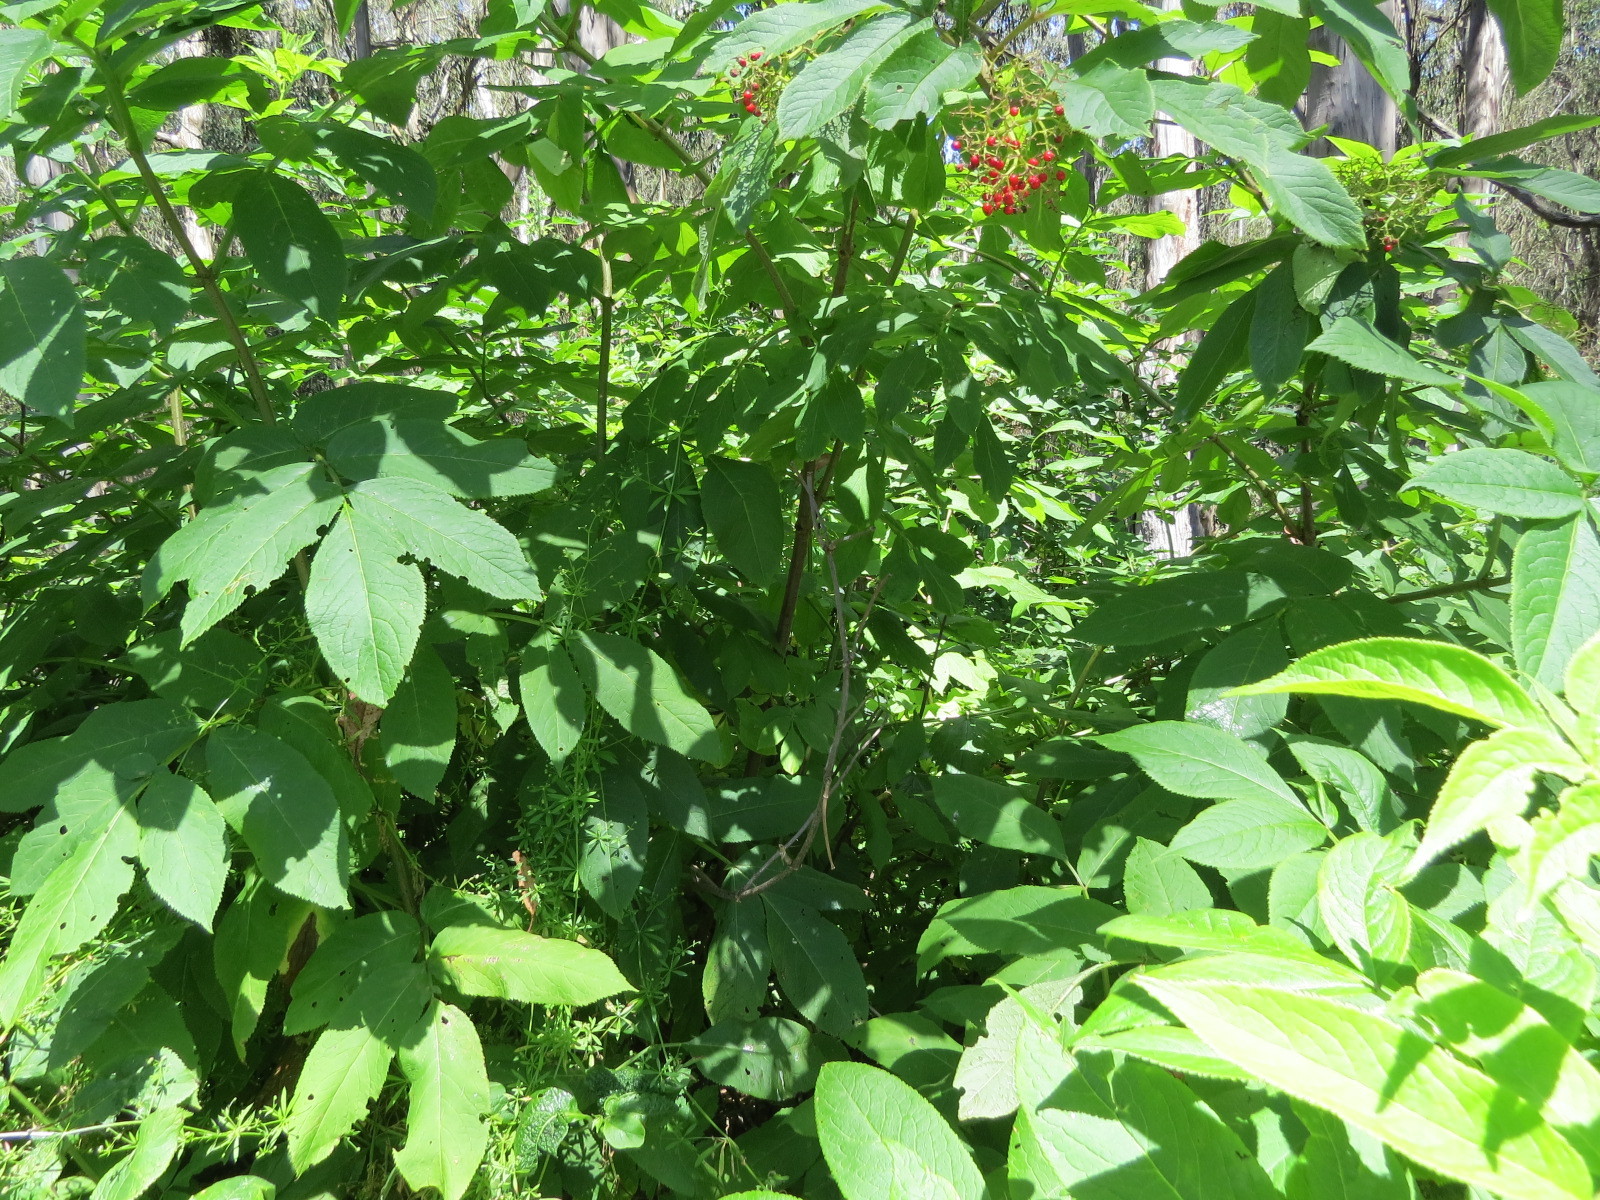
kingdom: Plantae
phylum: Tracheophyta
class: Magnoliopsida
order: Dipsacales
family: Viburnaceae
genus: Sambucus
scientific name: Sambucus racemosa
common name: Red-berried elder
